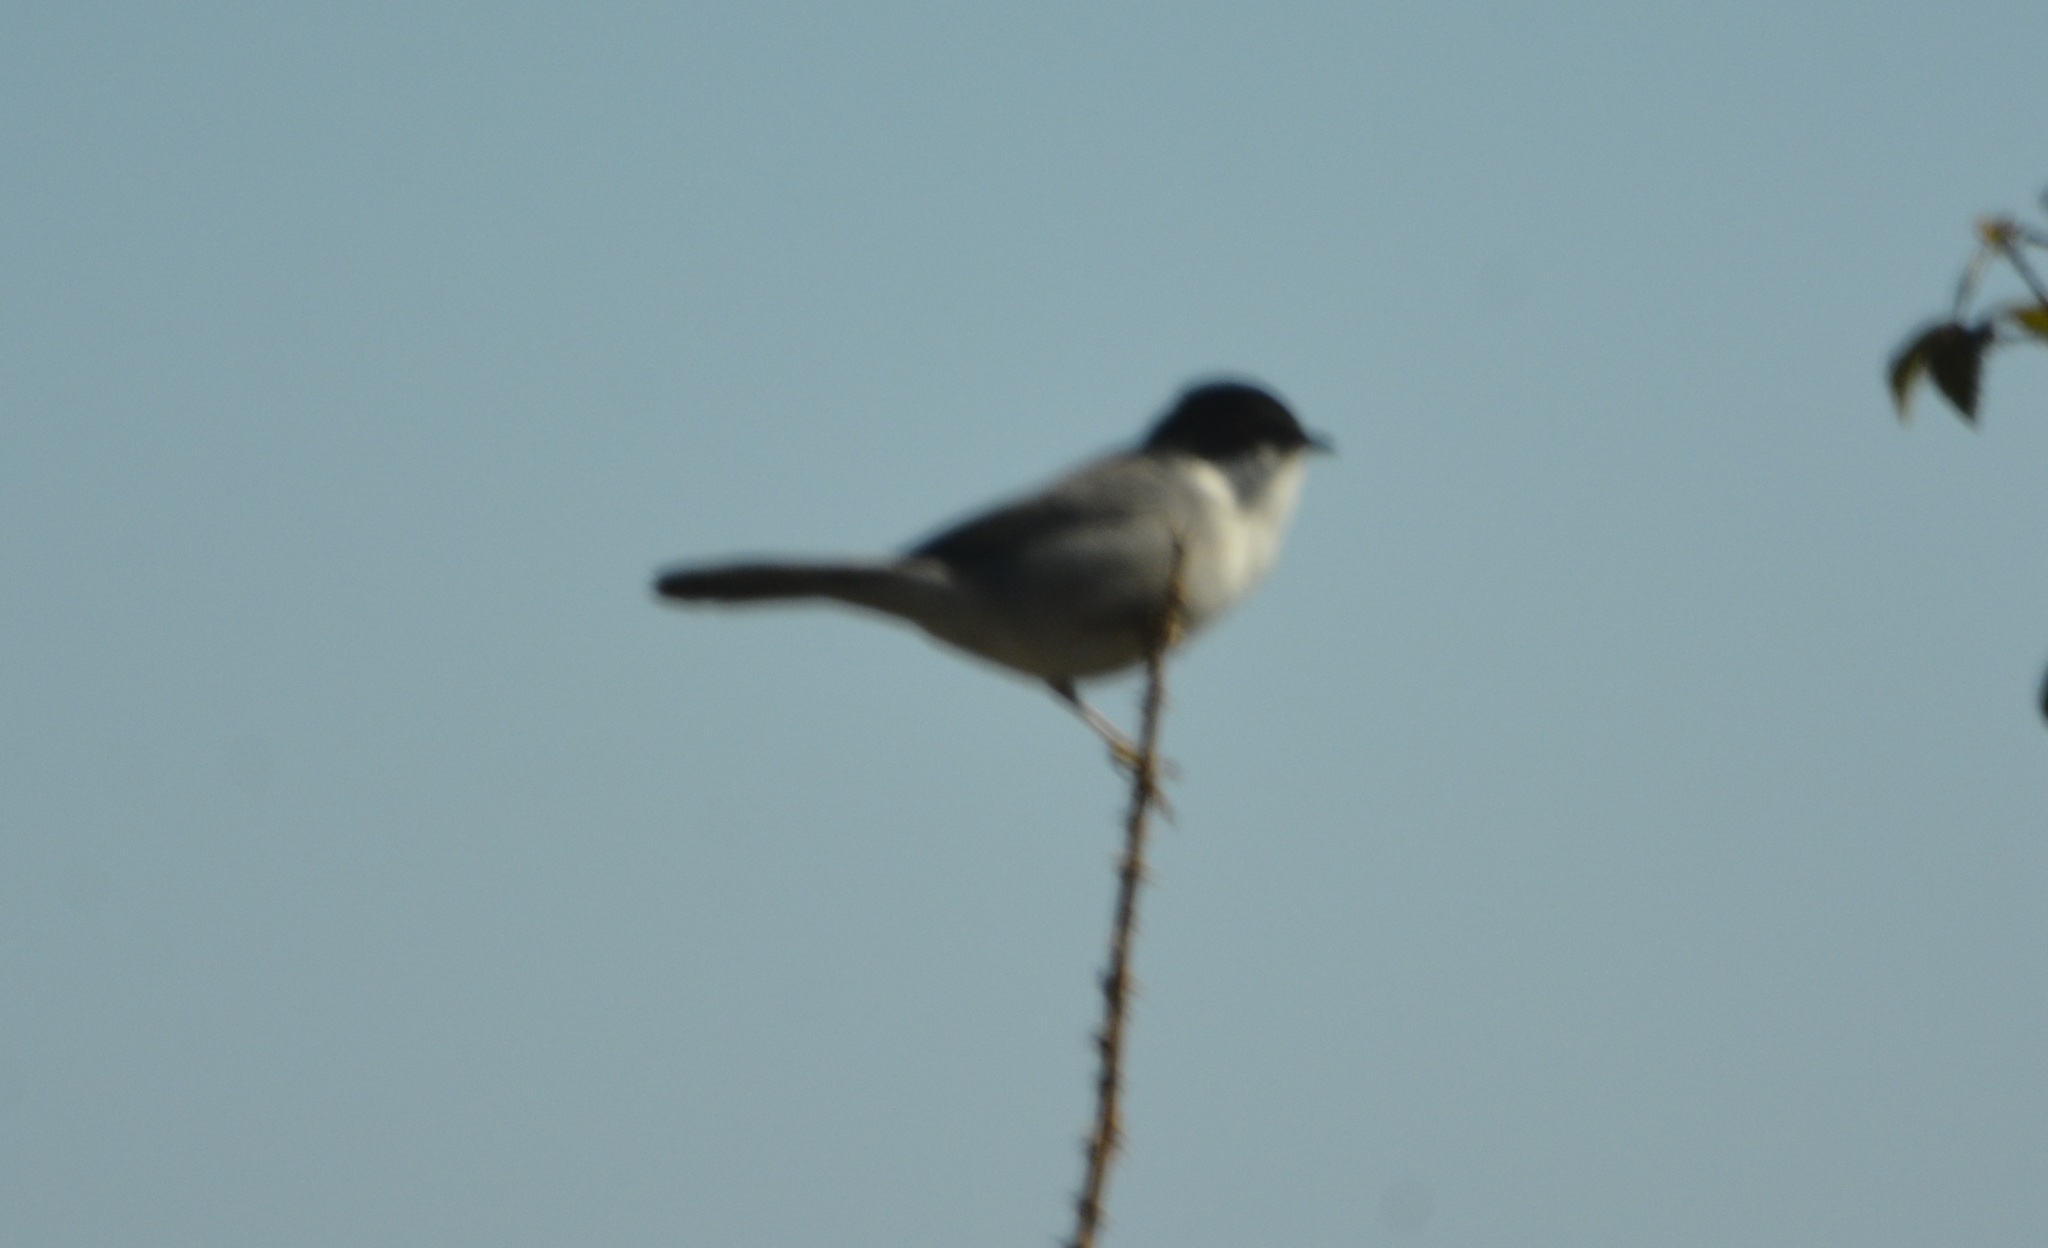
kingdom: Animalia
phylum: Chordata
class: Aves
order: Passeriformes
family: Sylviidae
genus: Curruca
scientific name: Curruca melanocephala
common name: Sardinian warbler
